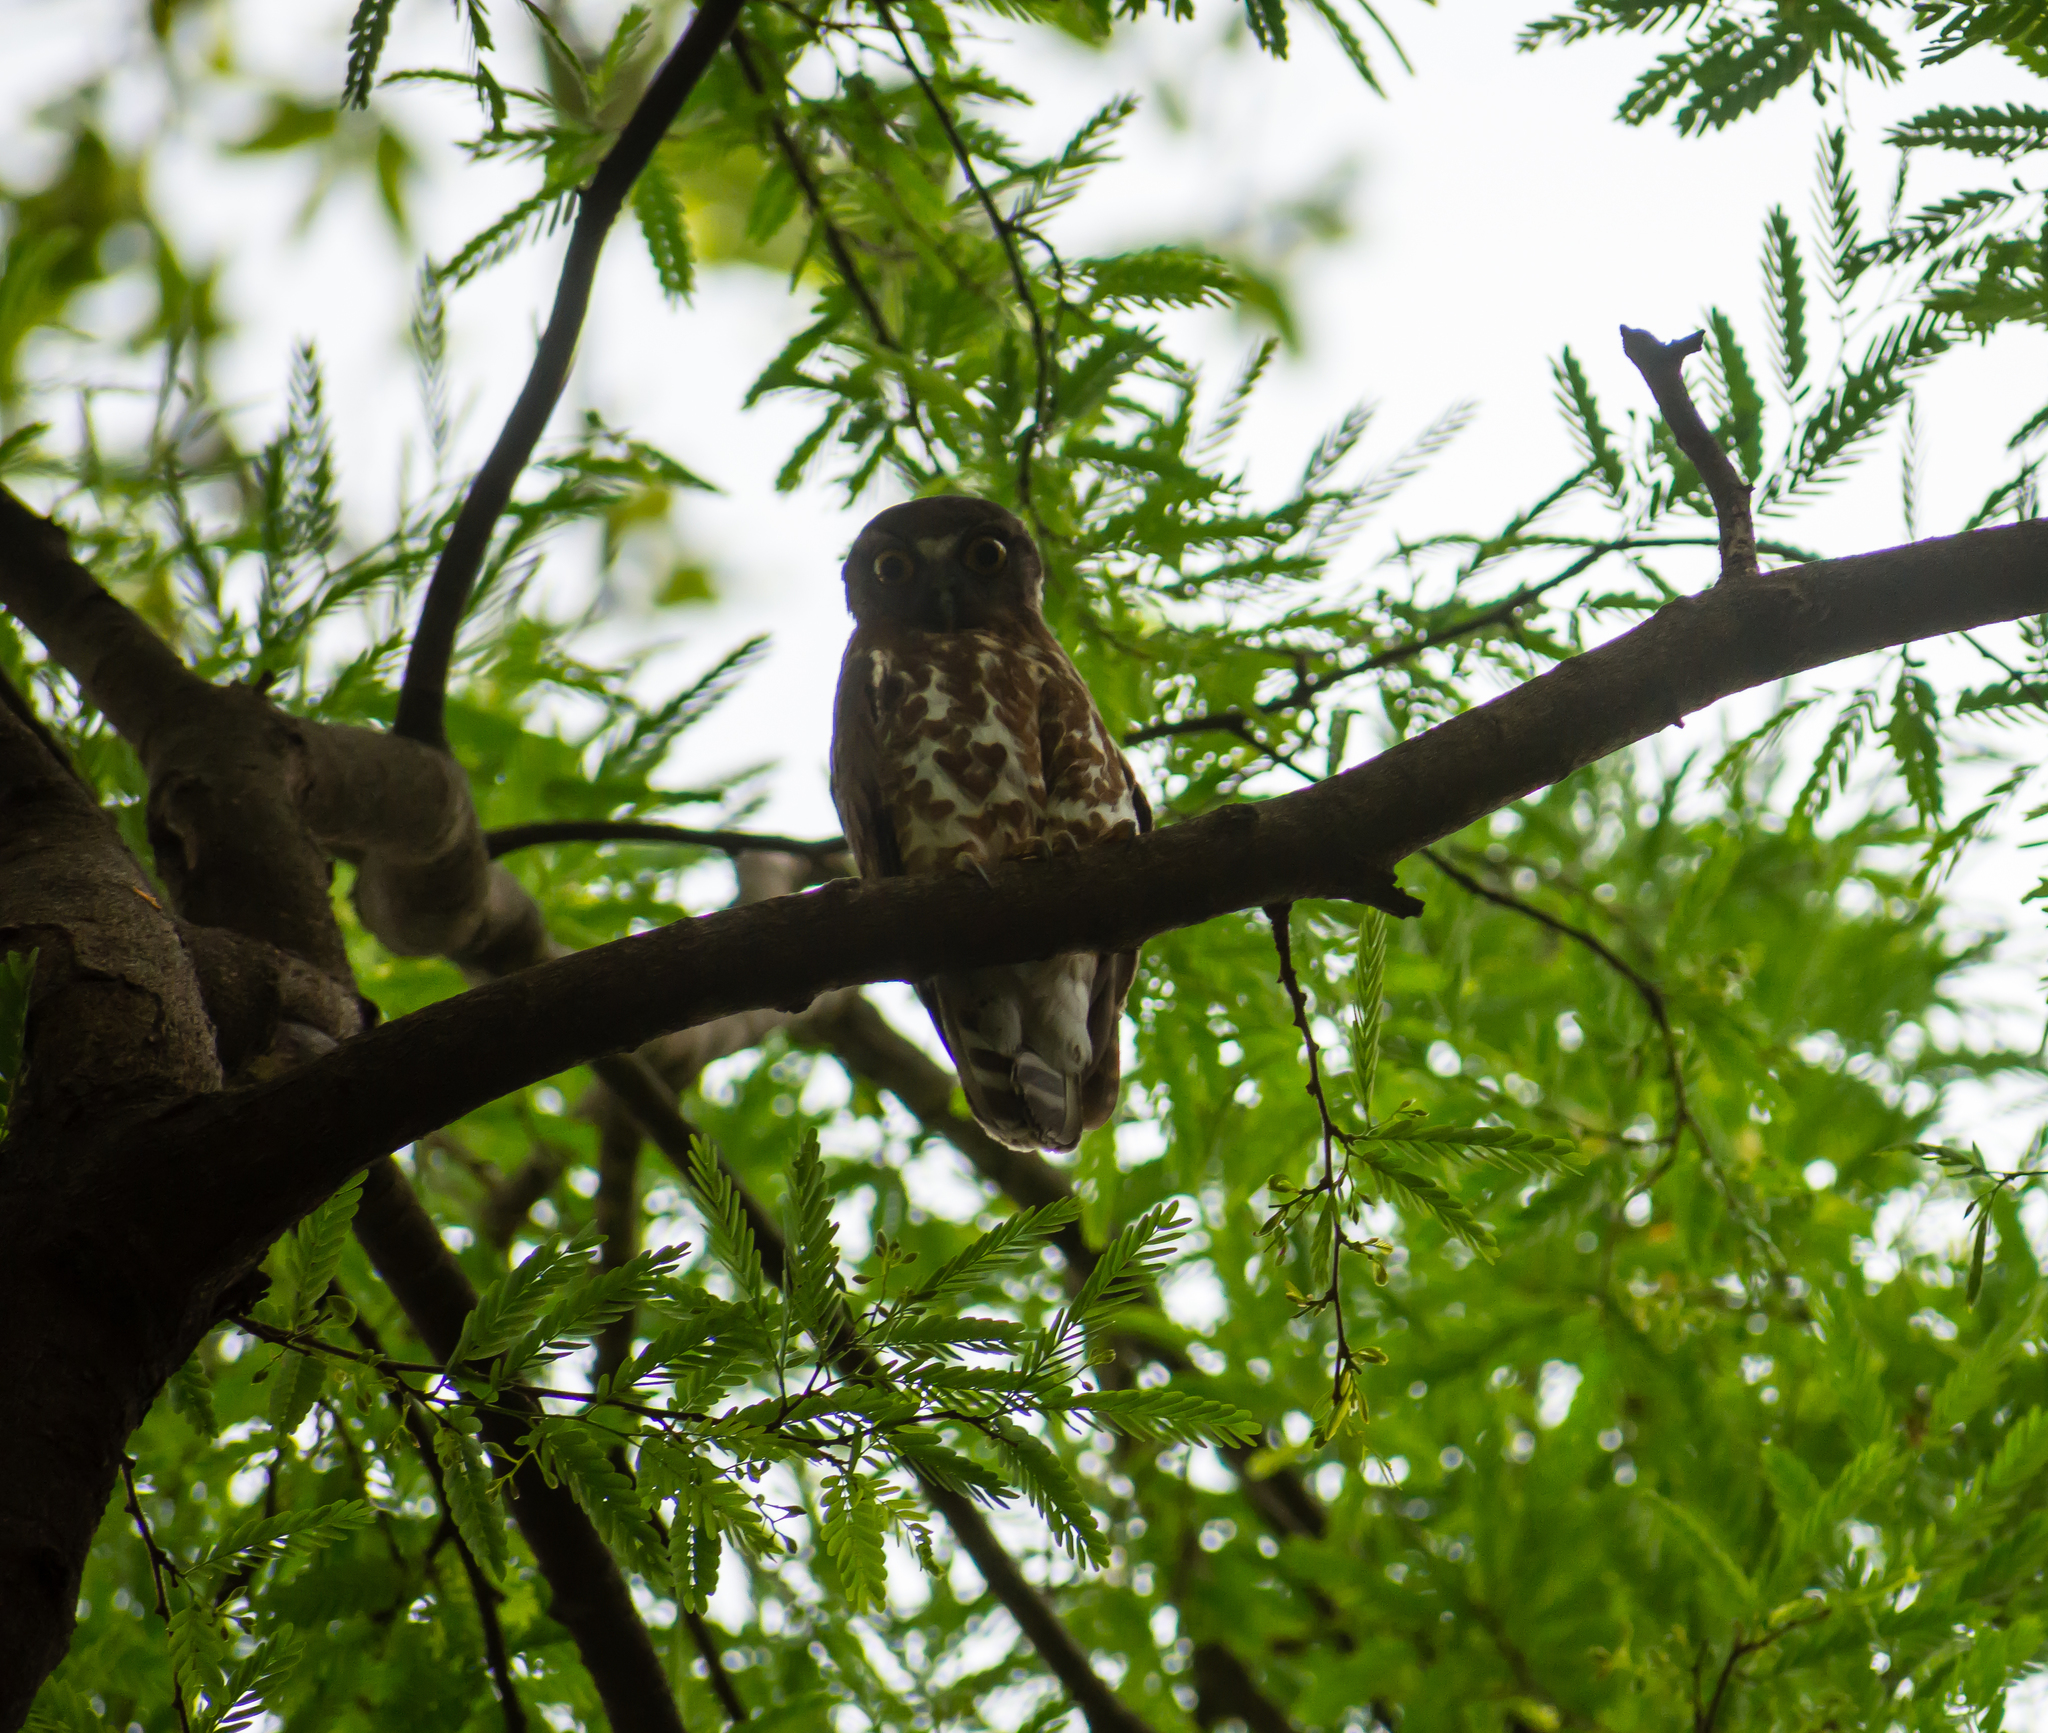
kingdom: Animalia
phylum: Chordata
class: Aves
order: Strigiformes
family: Strigidae
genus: Ninox
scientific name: Ninox scutulata
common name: Brown hawk-owl
